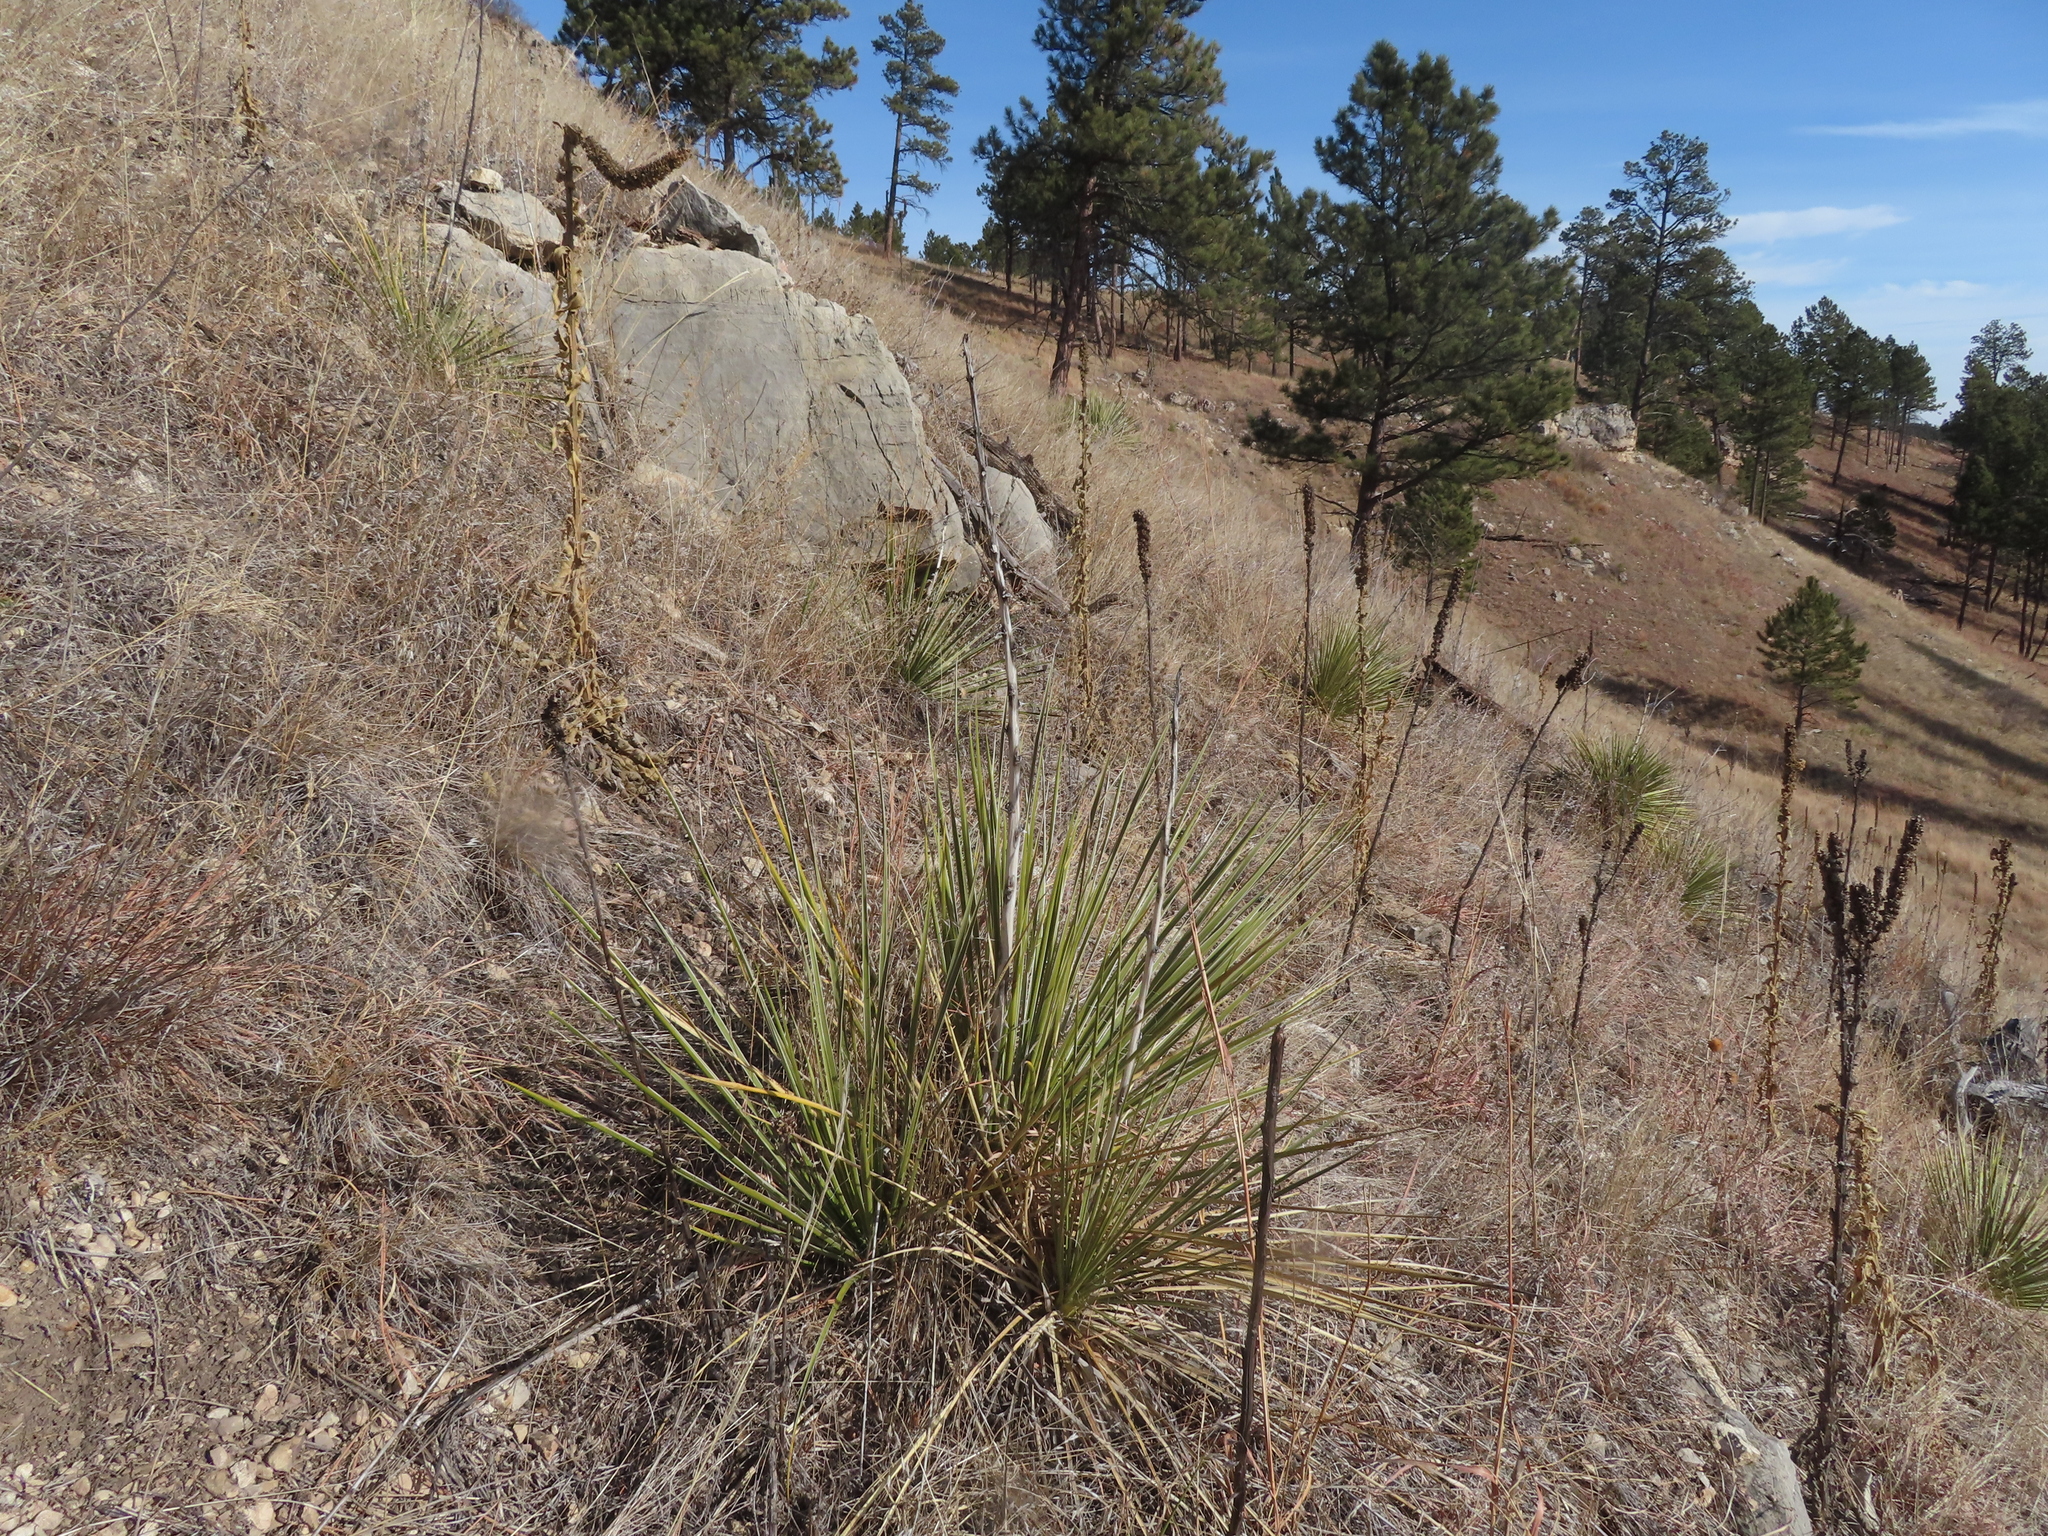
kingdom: Plantae
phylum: Tracheophyta
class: Magnoliopsida
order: Lamiales
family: Scrophulariaceae
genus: Verbascum
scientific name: Verbascum thapsus
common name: Common mullein
